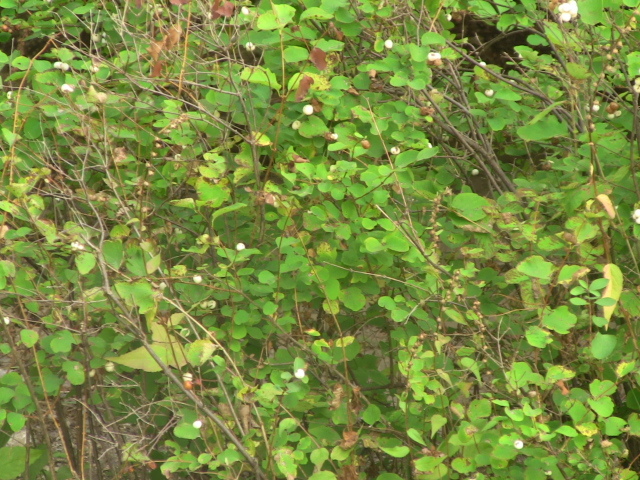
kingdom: Plantae
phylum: Tracheophyta
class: Magnoliopsida
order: Dipsacales
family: Caprifoliaceae
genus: Symphoricarpos
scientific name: Symphoricarpos albus
